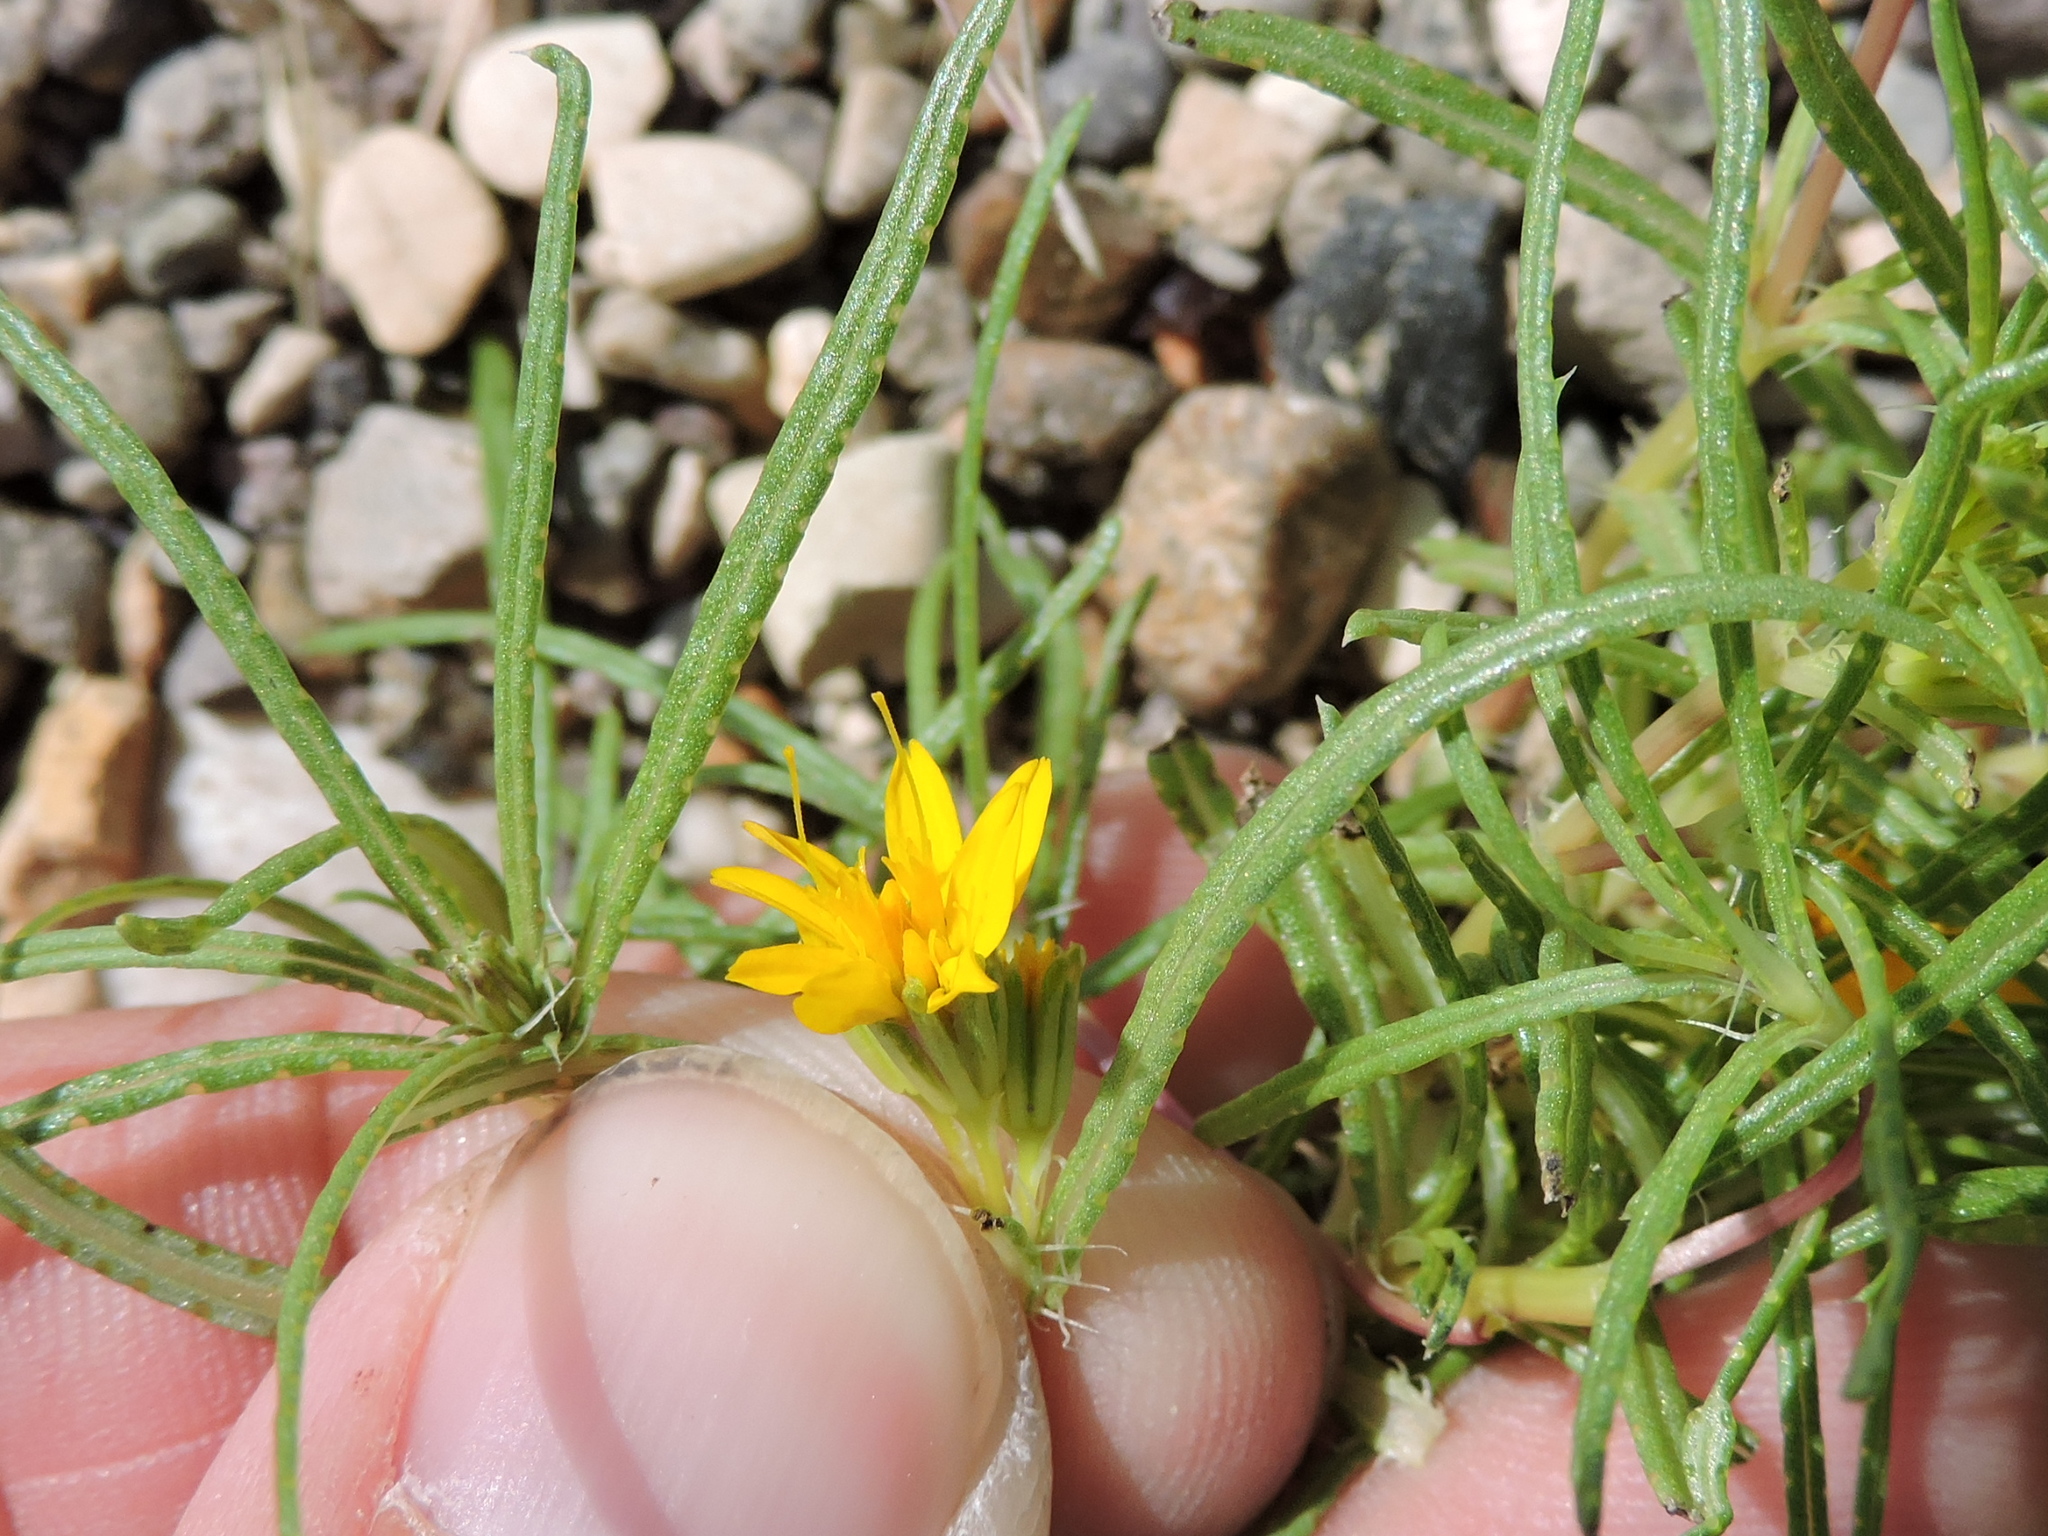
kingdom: Plantae
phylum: Tracheophyta
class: Magnoliopsida
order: Asterales
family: Asteraceae
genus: Pectis
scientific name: Pectis angustifolia
